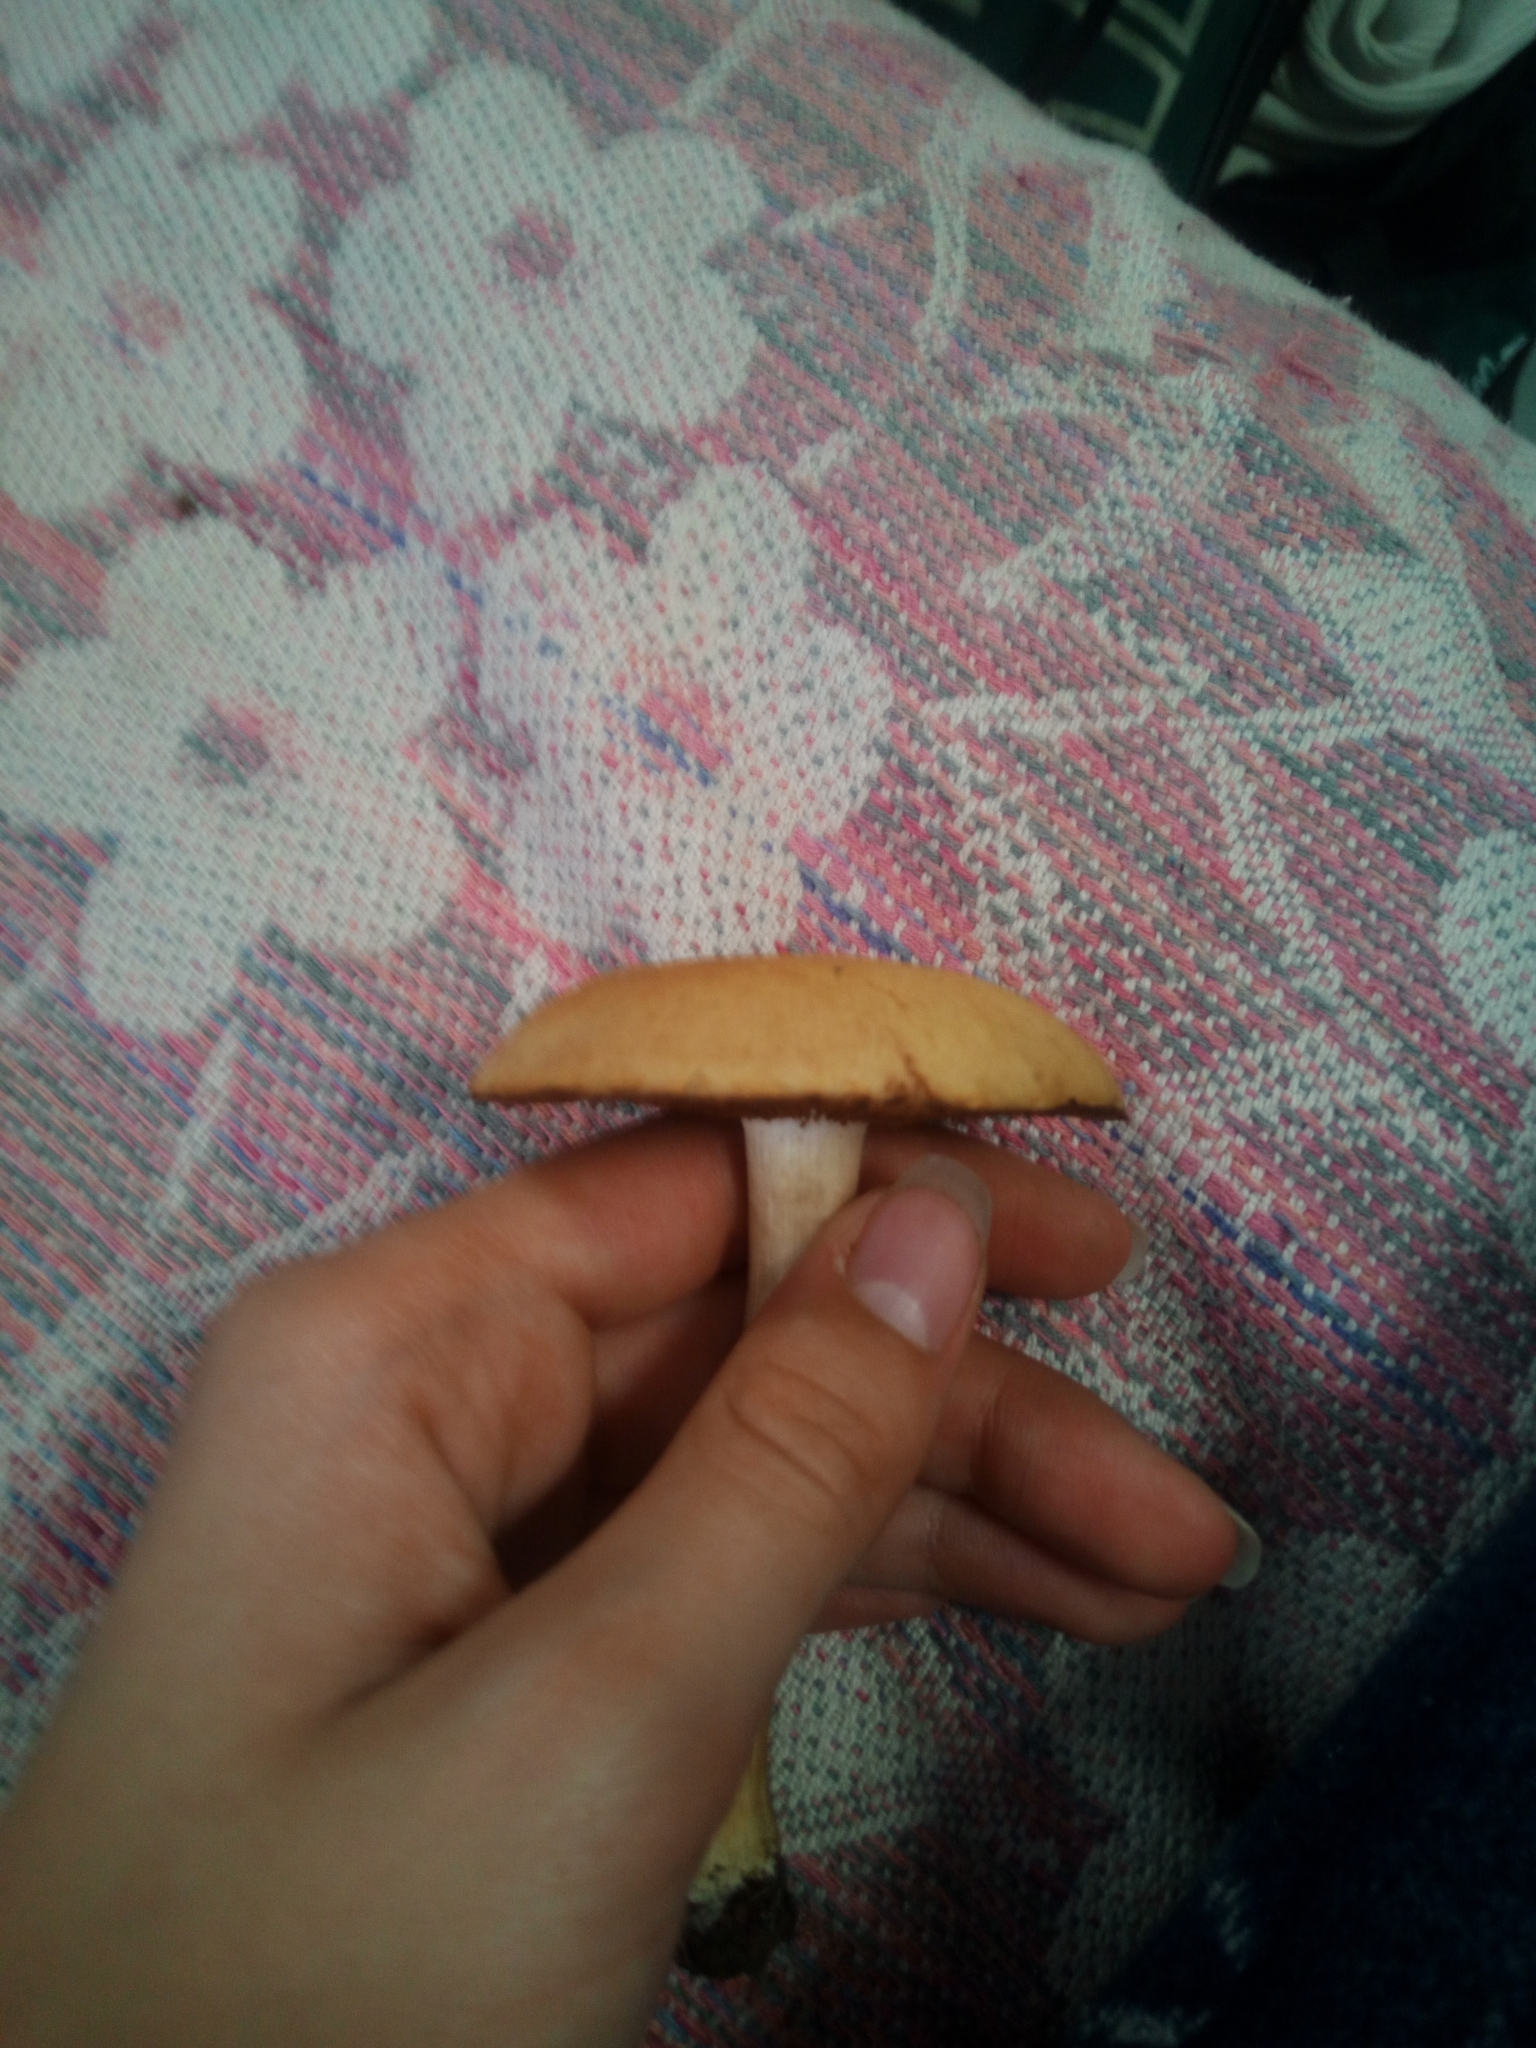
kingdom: Fungi
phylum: Basidiomycota
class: Agaricomycetes
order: Boletales
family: Suillaceae
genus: Suillus
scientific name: Suillus granulatus
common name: Weeping bolete
